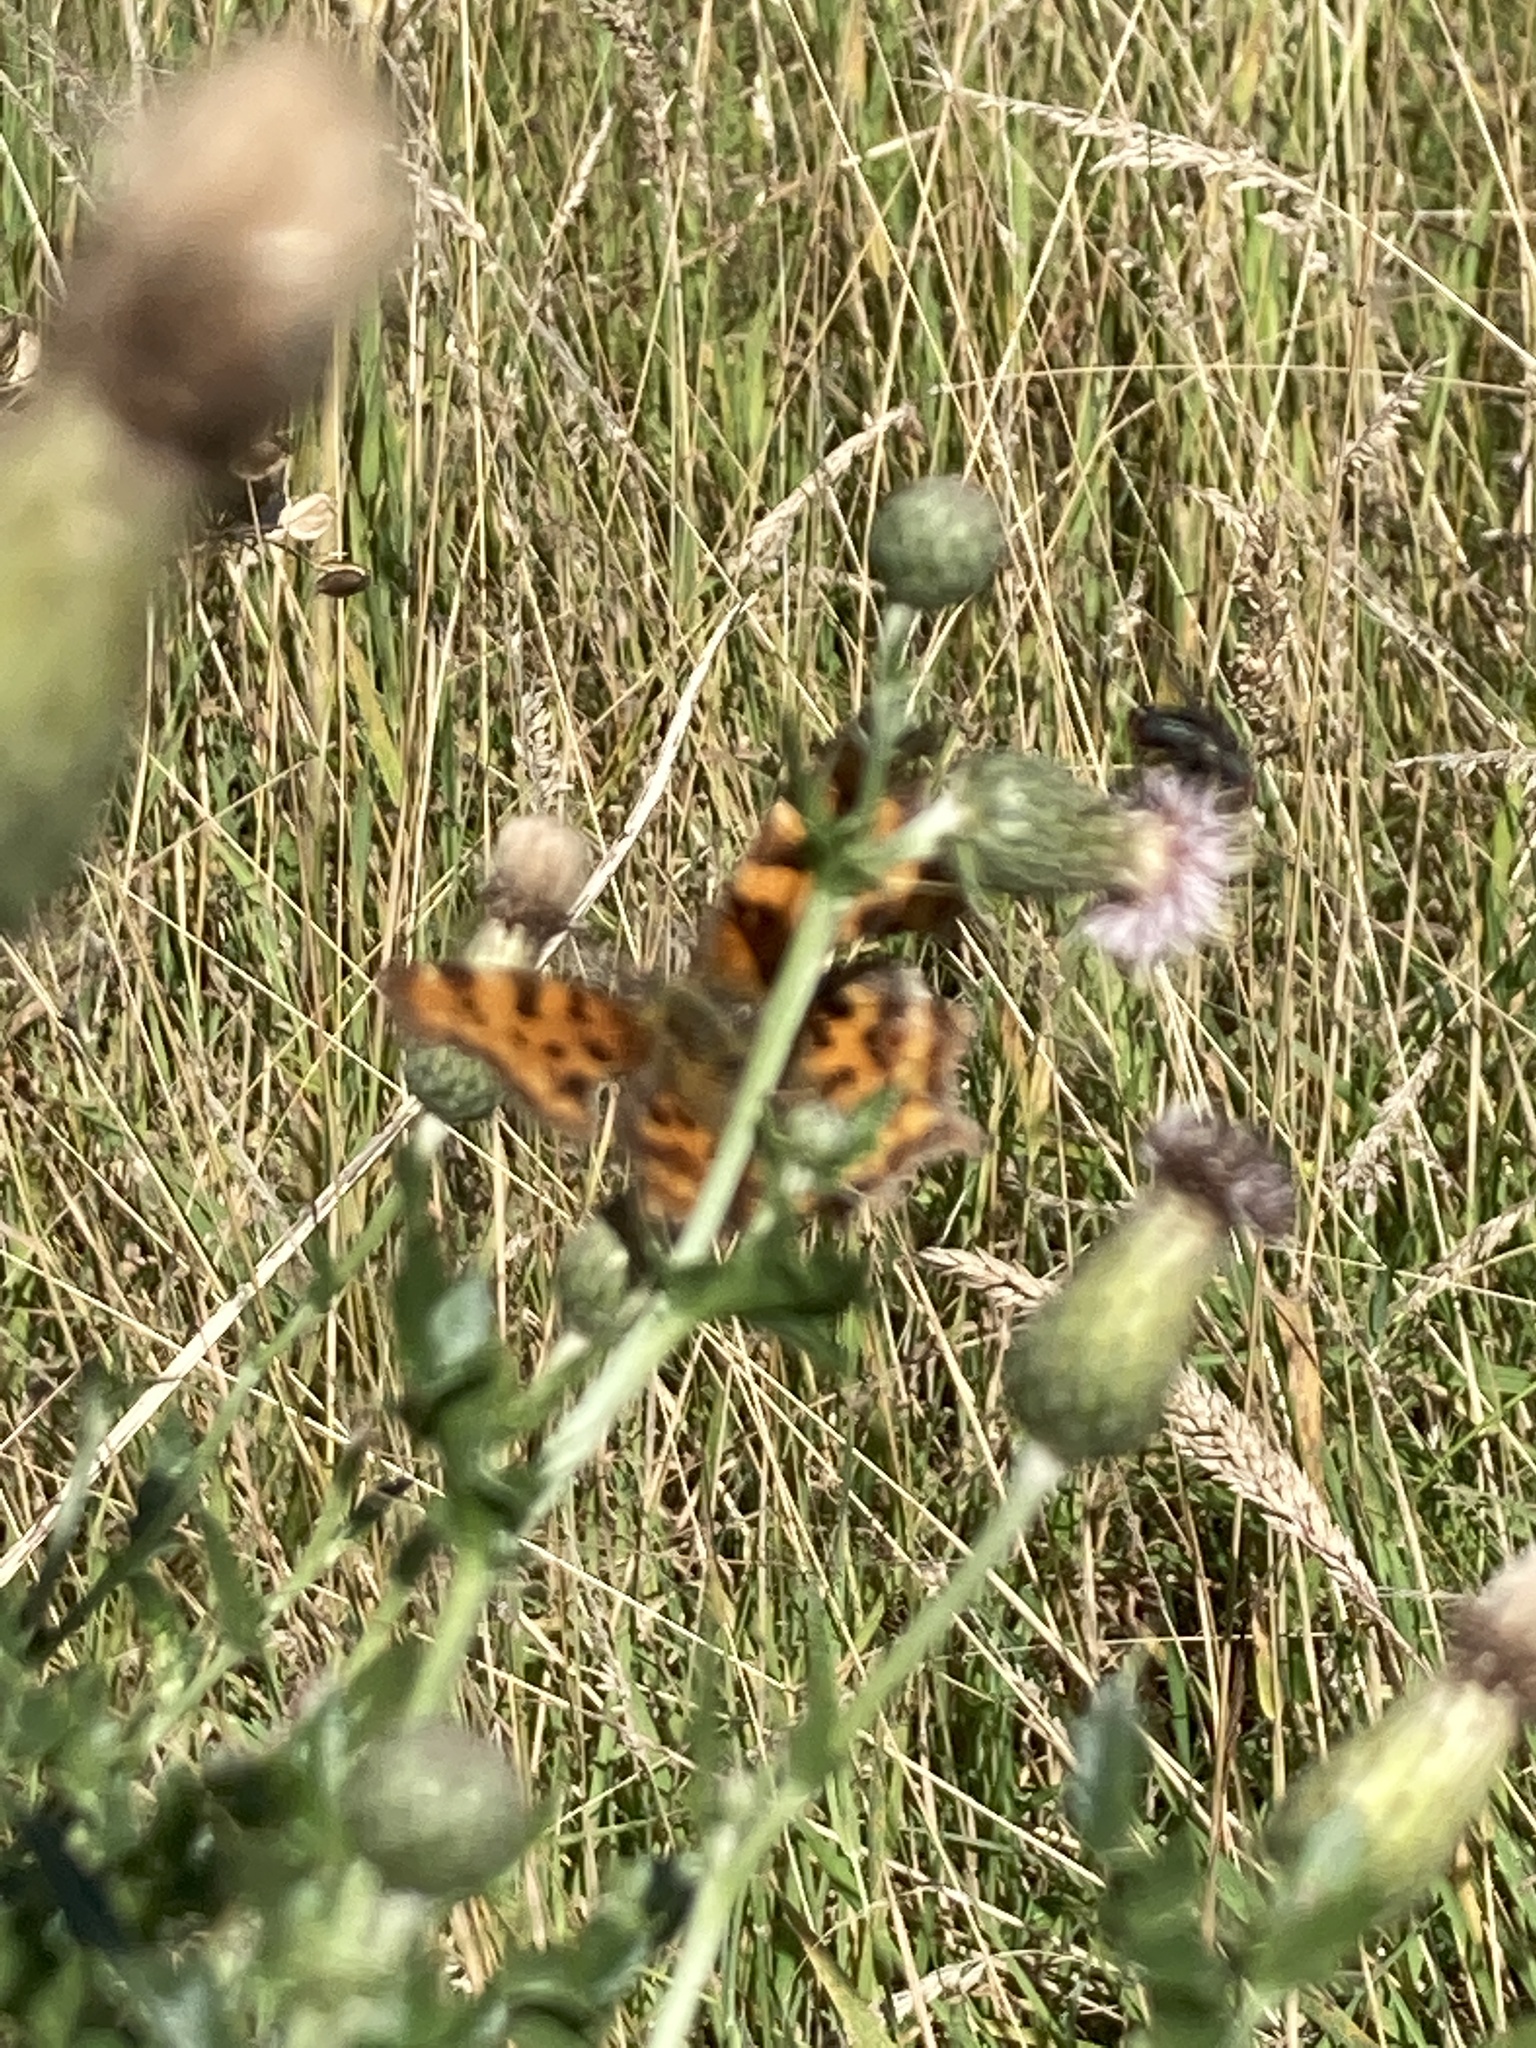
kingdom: Animalia
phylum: Arthropoda
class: Insecta
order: Lepidoptera
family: Nymphalidae
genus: Polygonia
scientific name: Polygonia c-album
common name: Comma
